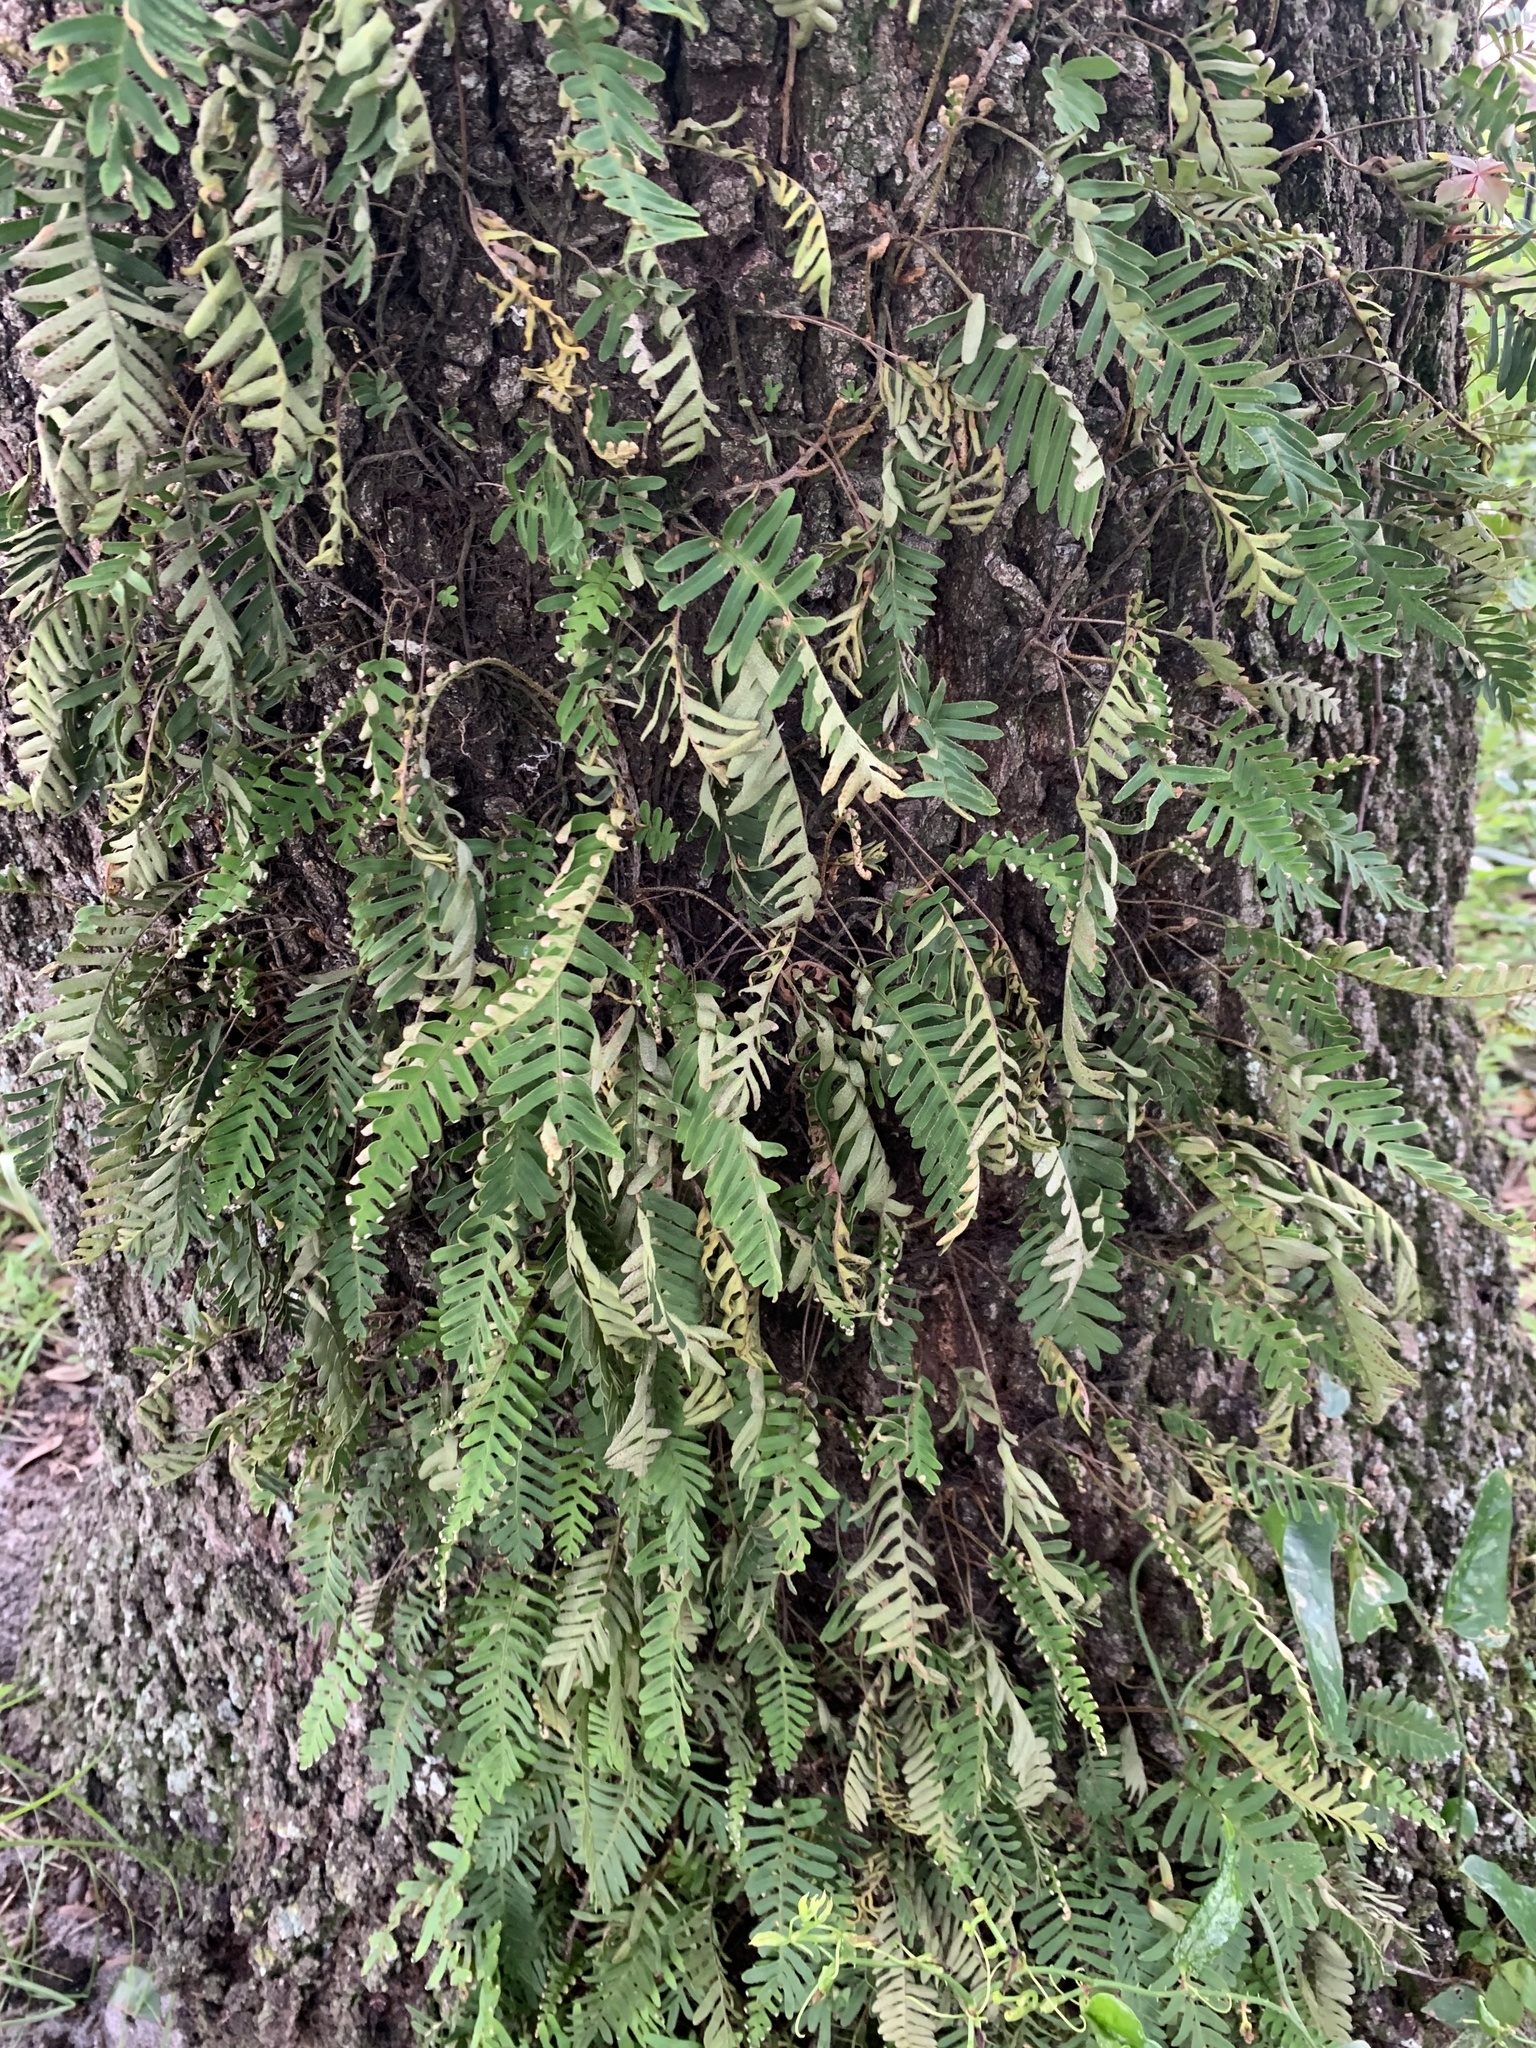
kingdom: Plantae
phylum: Tracheophyta
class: Polypodiopsida
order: Polypodiales
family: Polypodiaceae
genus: Pleopeltis
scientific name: Pleopeltis michauxiana
